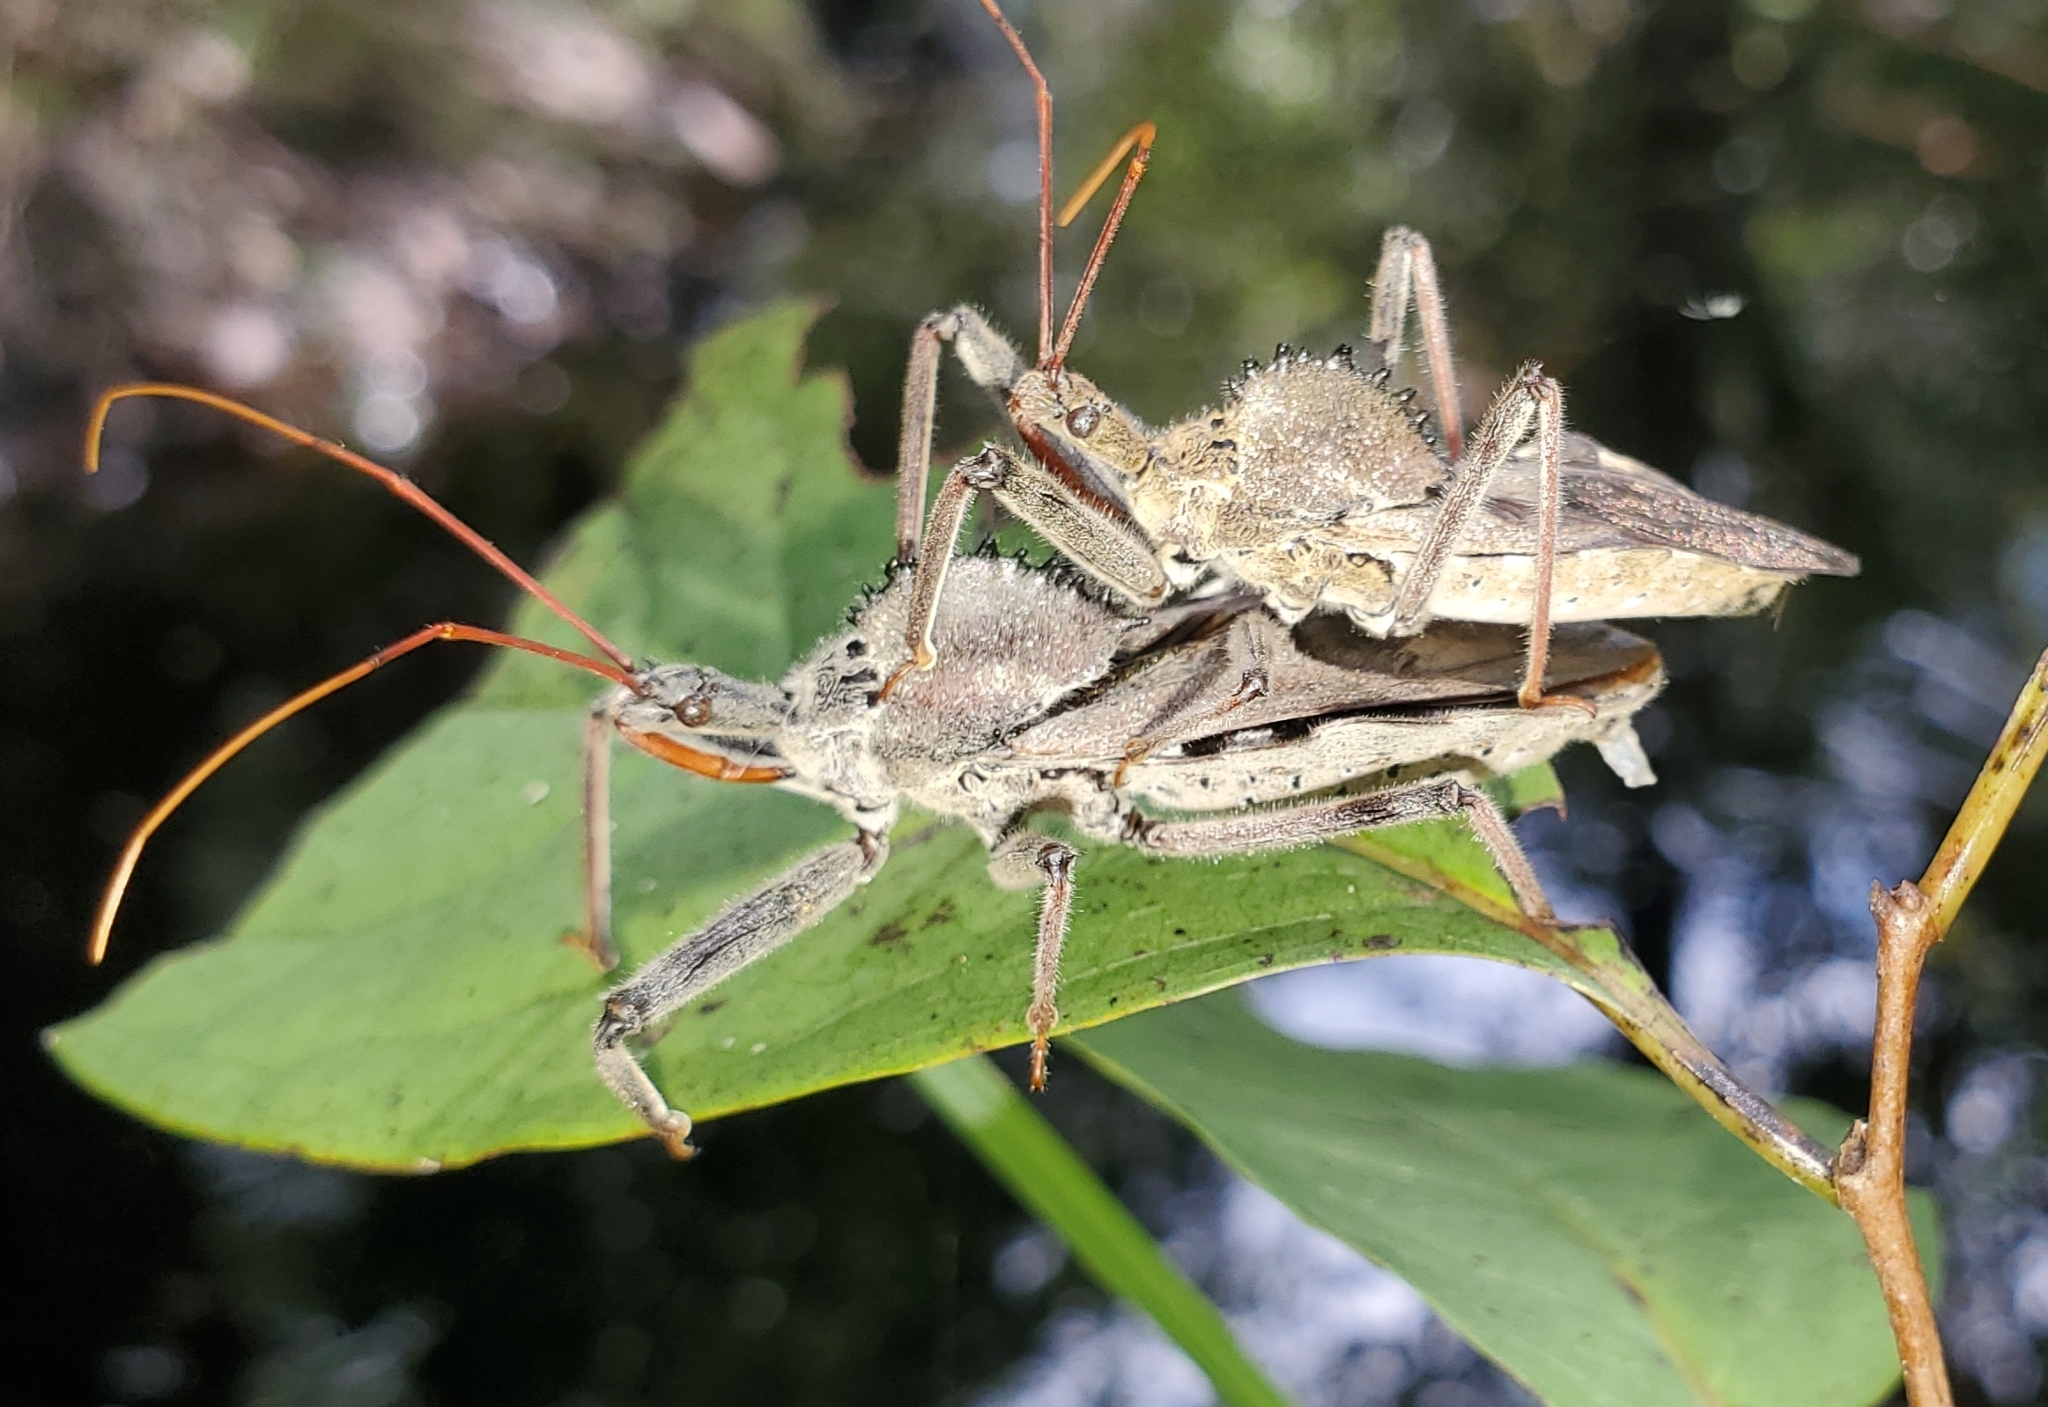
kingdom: Animalia
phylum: Arthropoda
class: Insecta
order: Hemiptera
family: Reduviidae
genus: Arilus
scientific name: Arilus cristatus
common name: North american wheel bug
